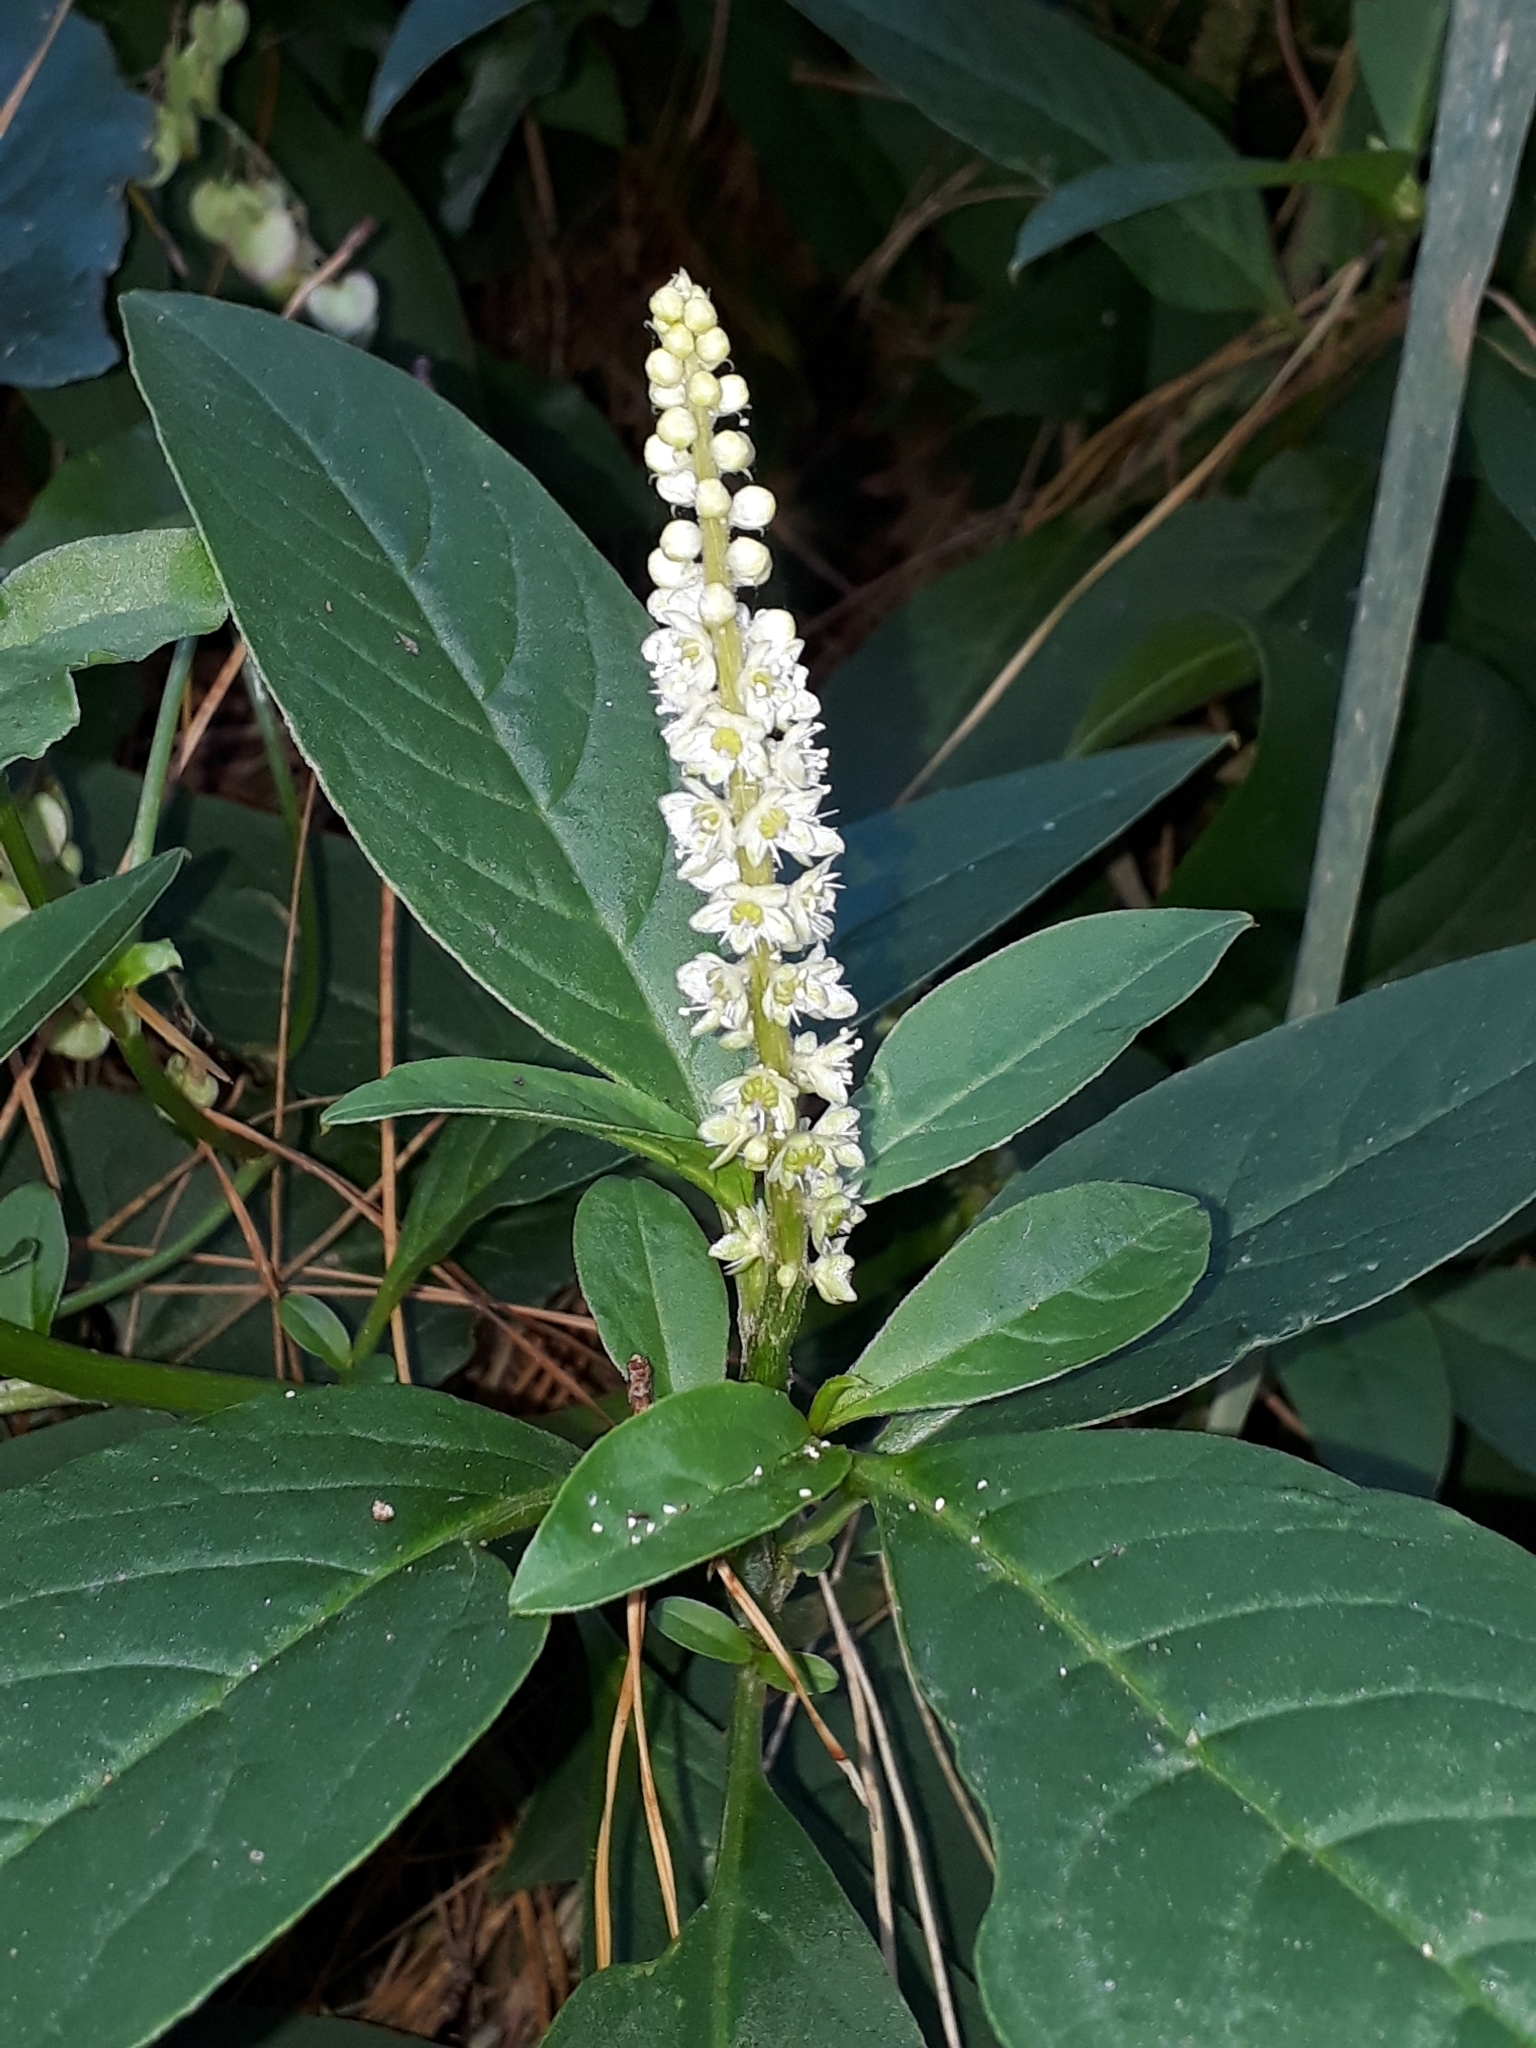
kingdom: Plantae
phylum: Tracheophyta
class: Magnoliopsida
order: Caryophyllales
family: Phytolaccaceae
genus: Phytolacca
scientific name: Phytolacca icosandra
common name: Button pokeweed
